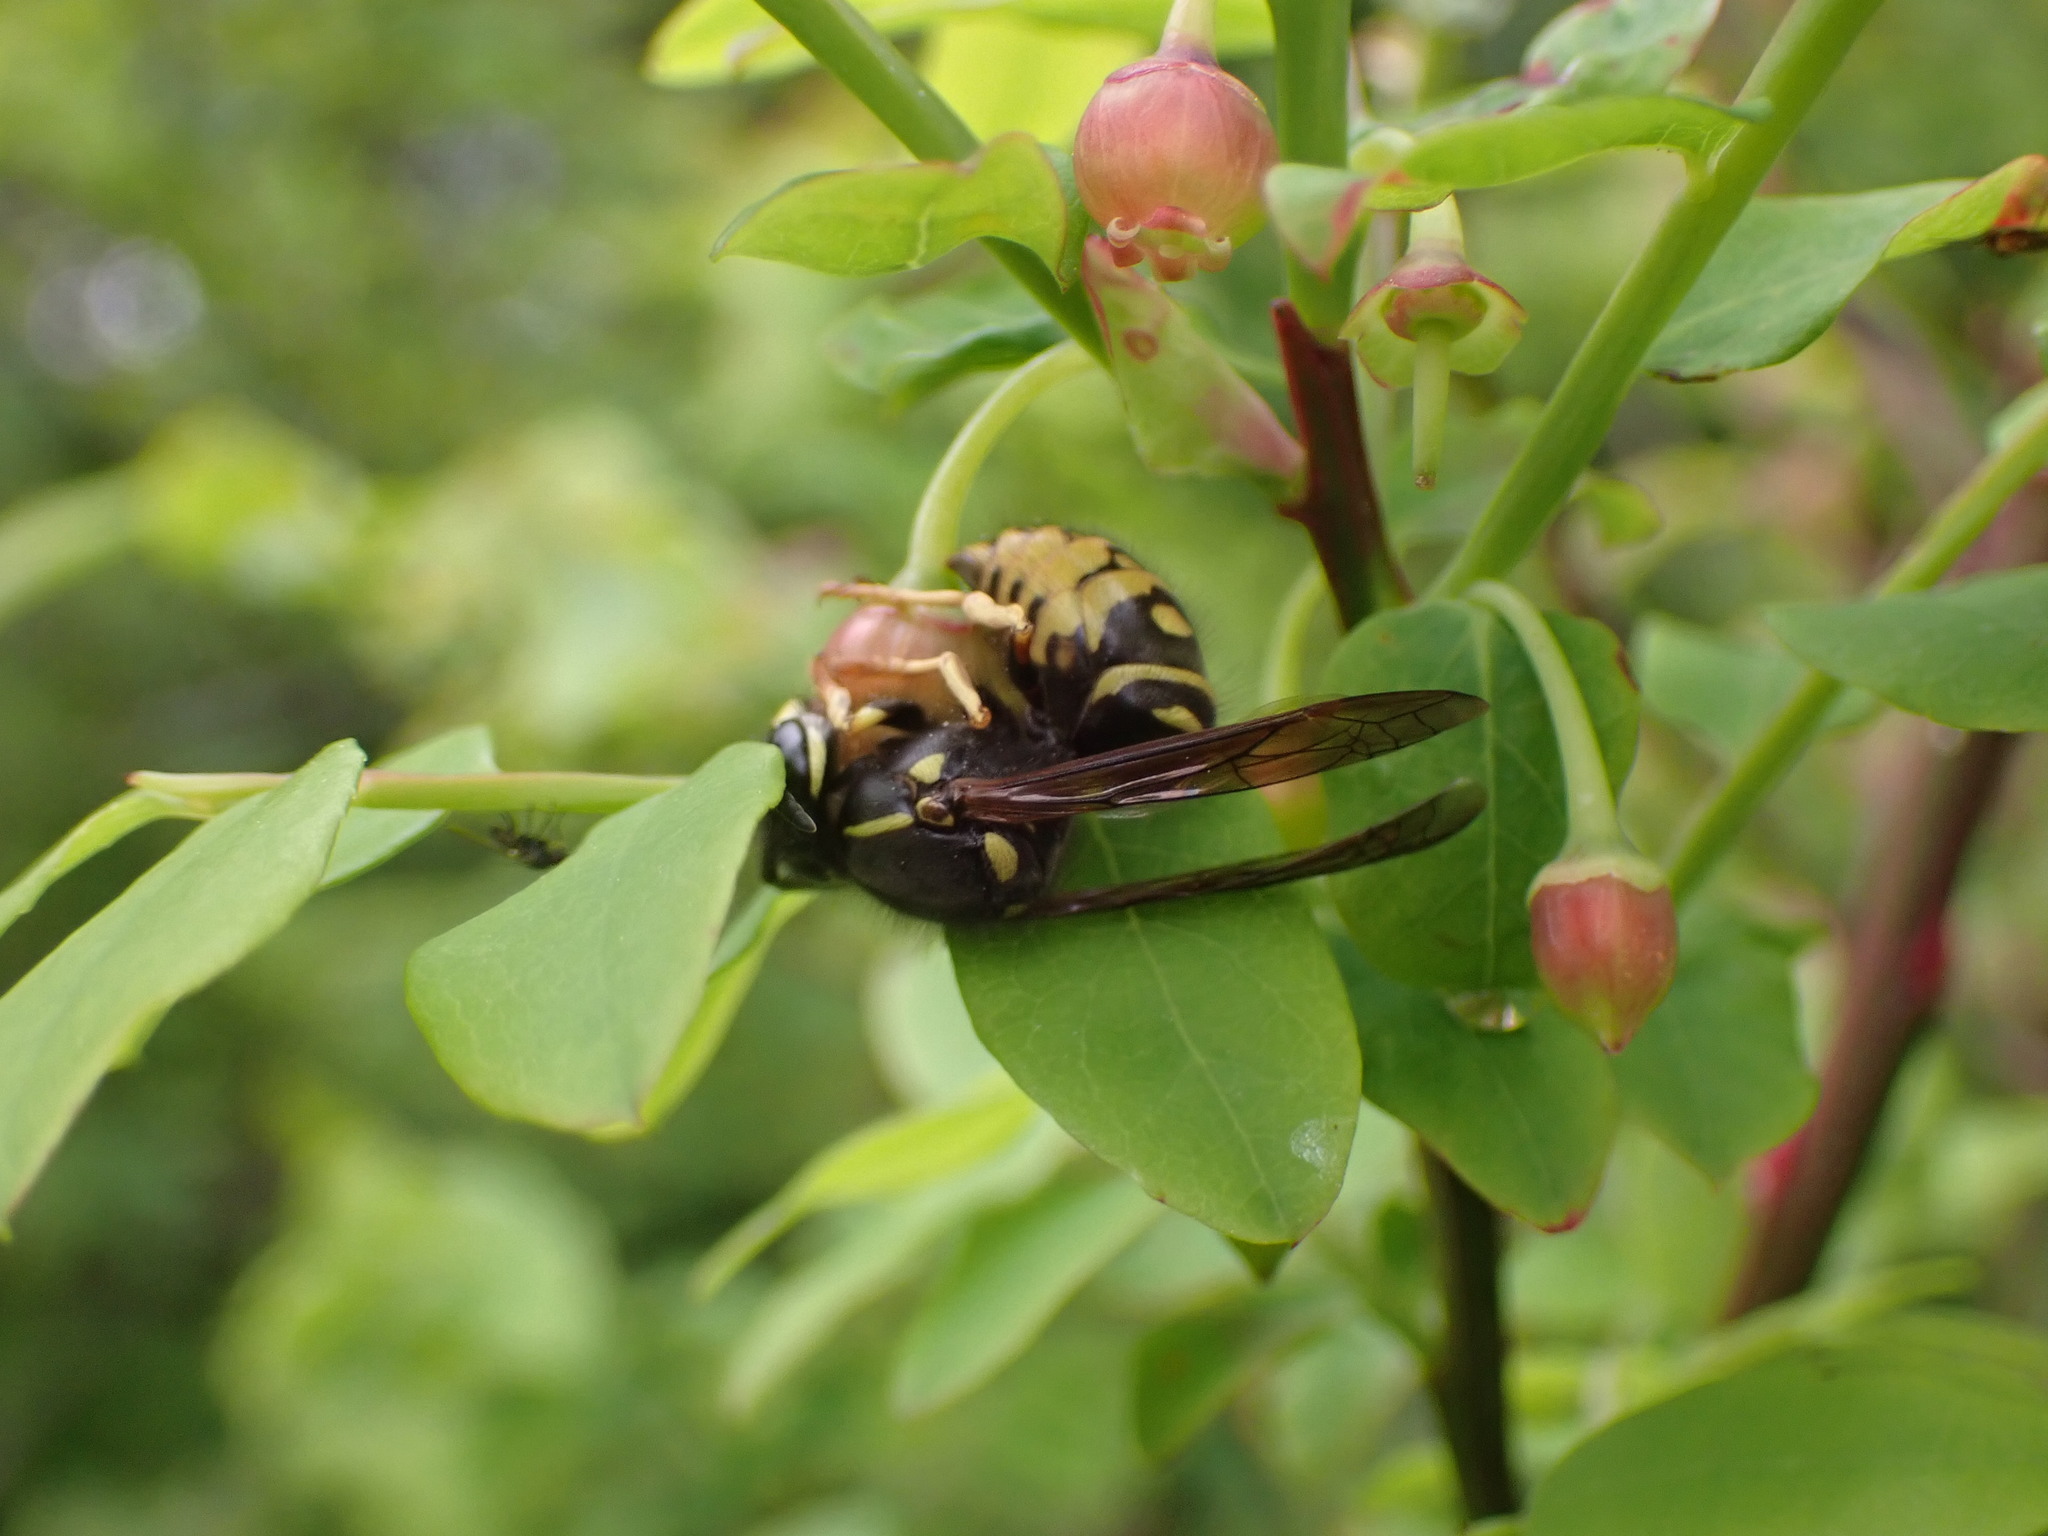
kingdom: Animalia
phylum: Arthropoda
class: Insecta
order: Hymenoptera
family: Vespidae
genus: Vespula
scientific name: Vespula acadica
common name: Forest yellowjacket
